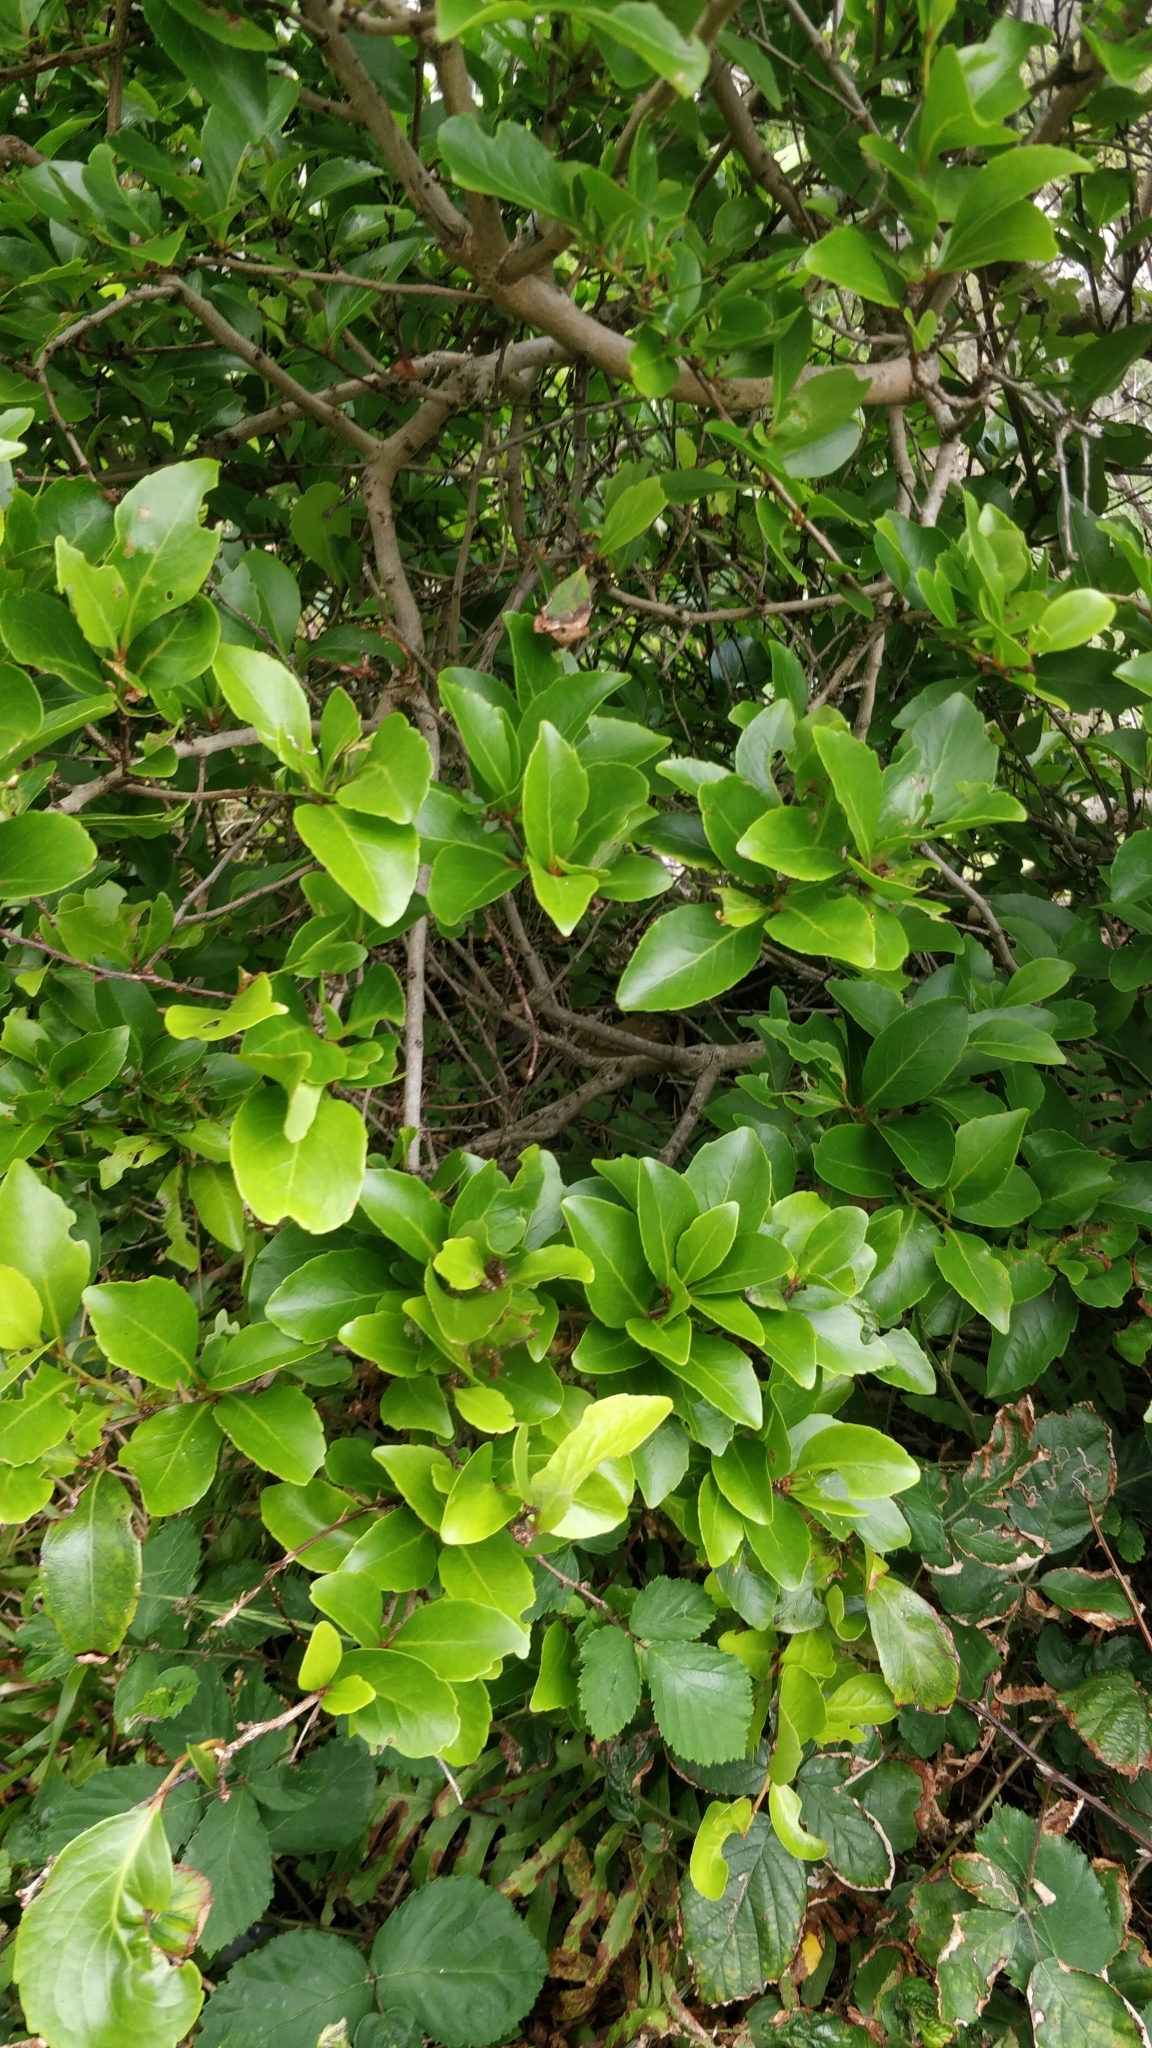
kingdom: Plantae
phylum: Tracheophyta
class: Magnoliopsida
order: Celastrales
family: Celastraceae
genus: Gymnosporia
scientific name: Gymnosporia dryandri
